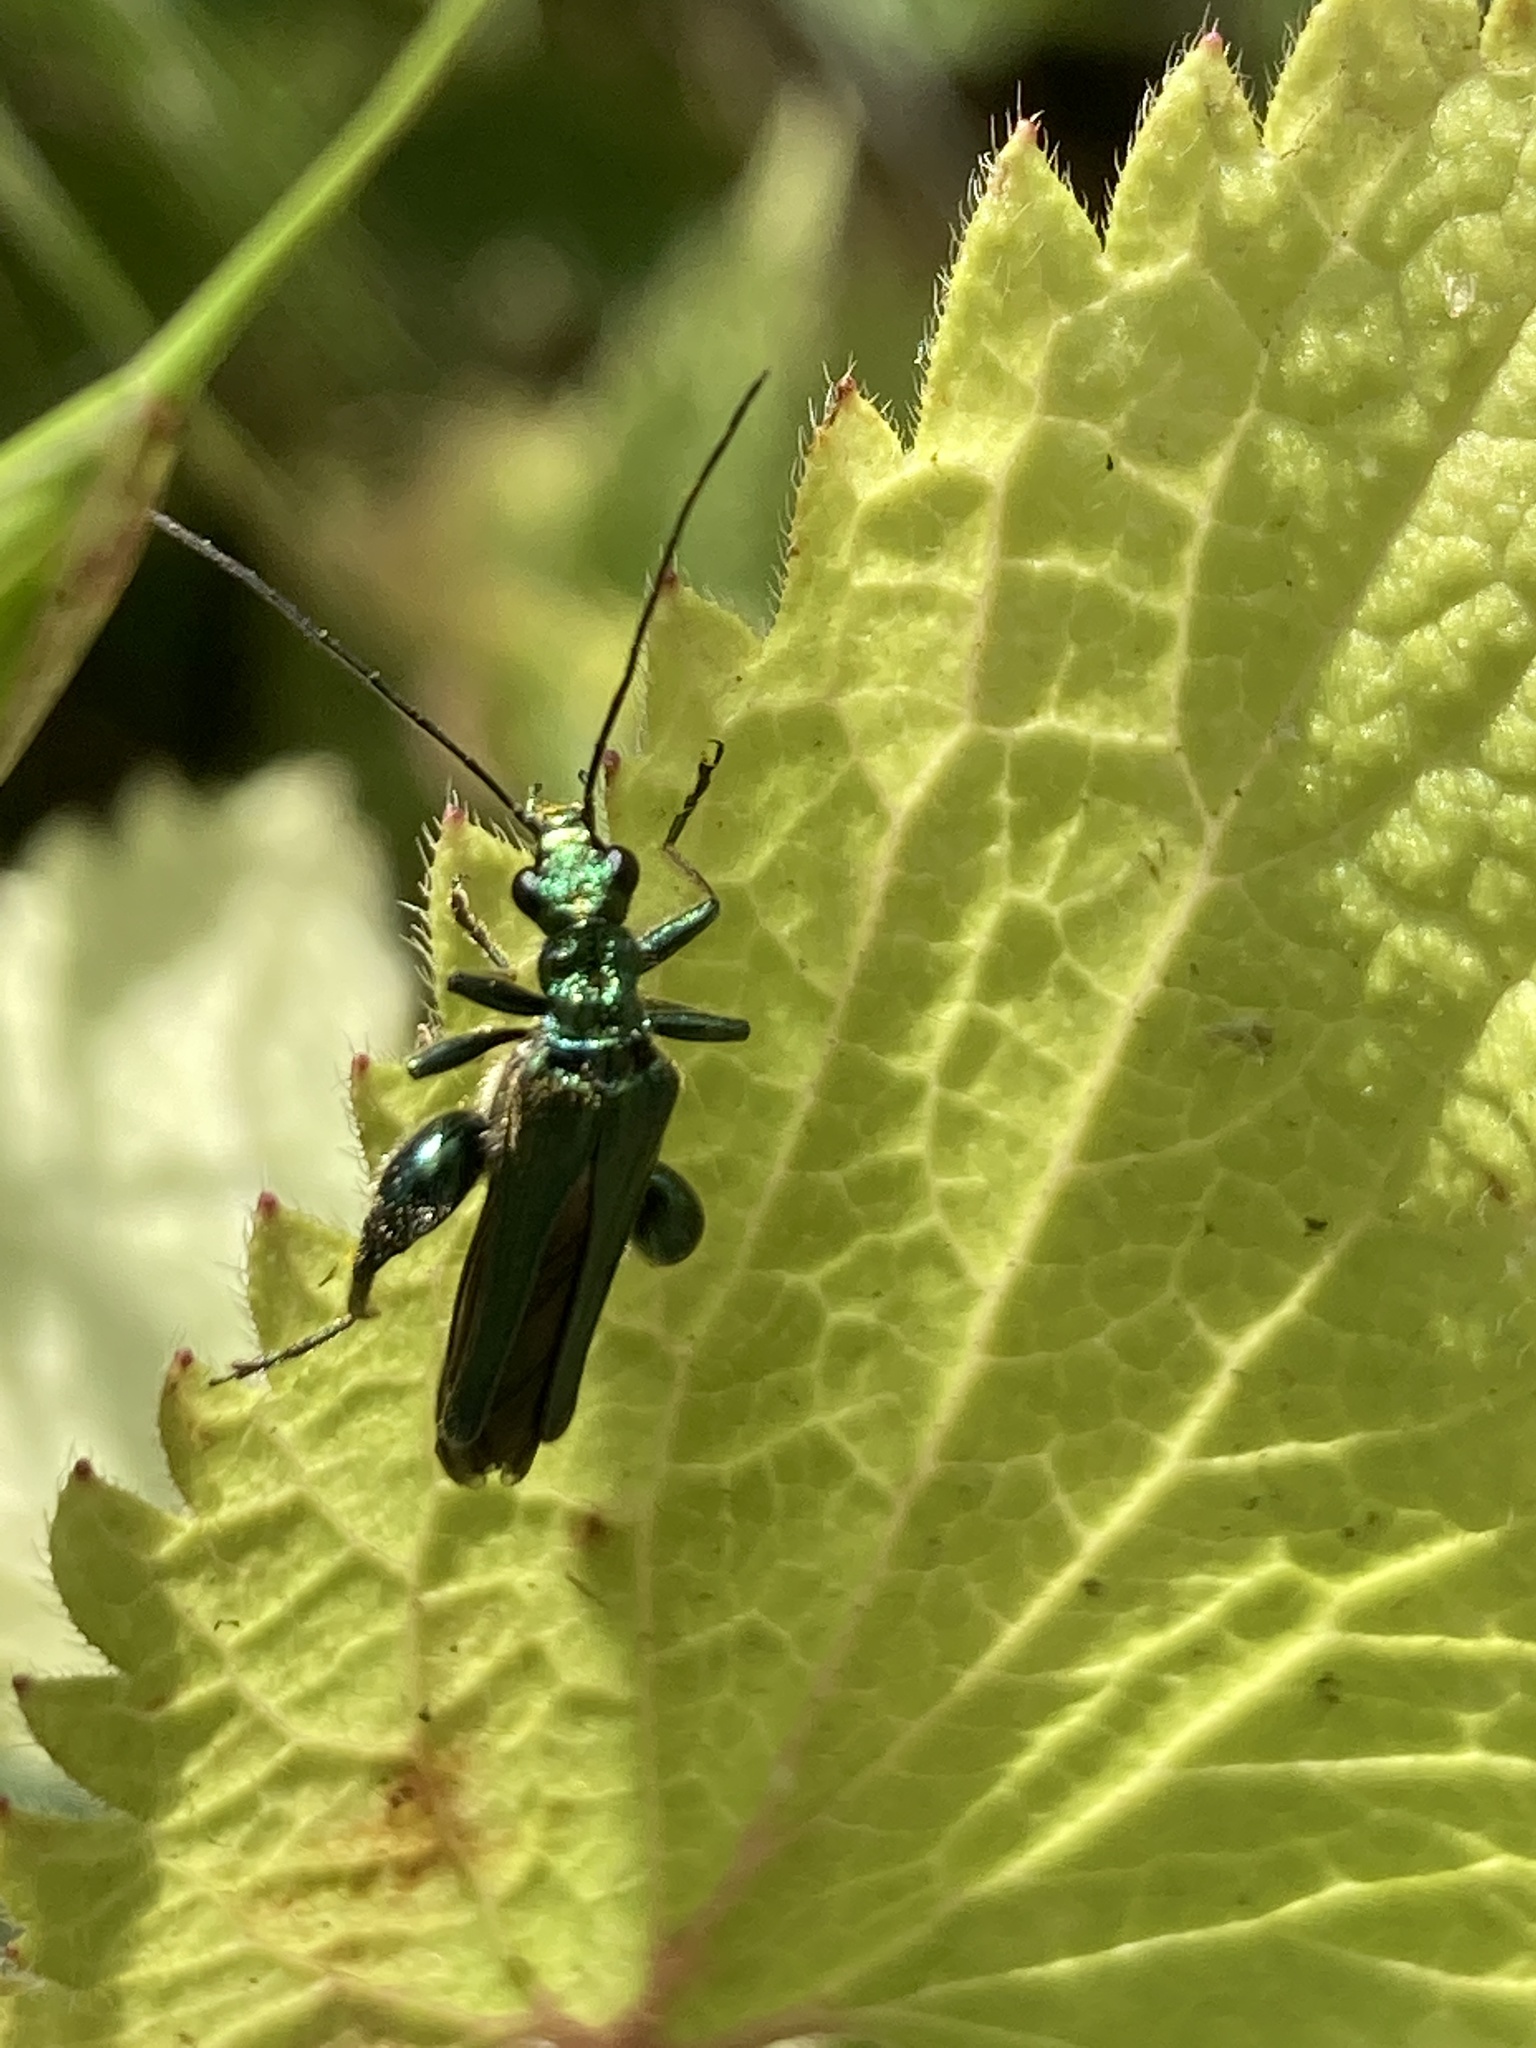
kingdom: Animalia
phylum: Arthropoda
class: Insecta
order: Coleoptera
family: Oedemeridae
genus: Oedemera
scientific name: Oedemera nobilis
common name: Swollen-thighed beetle
